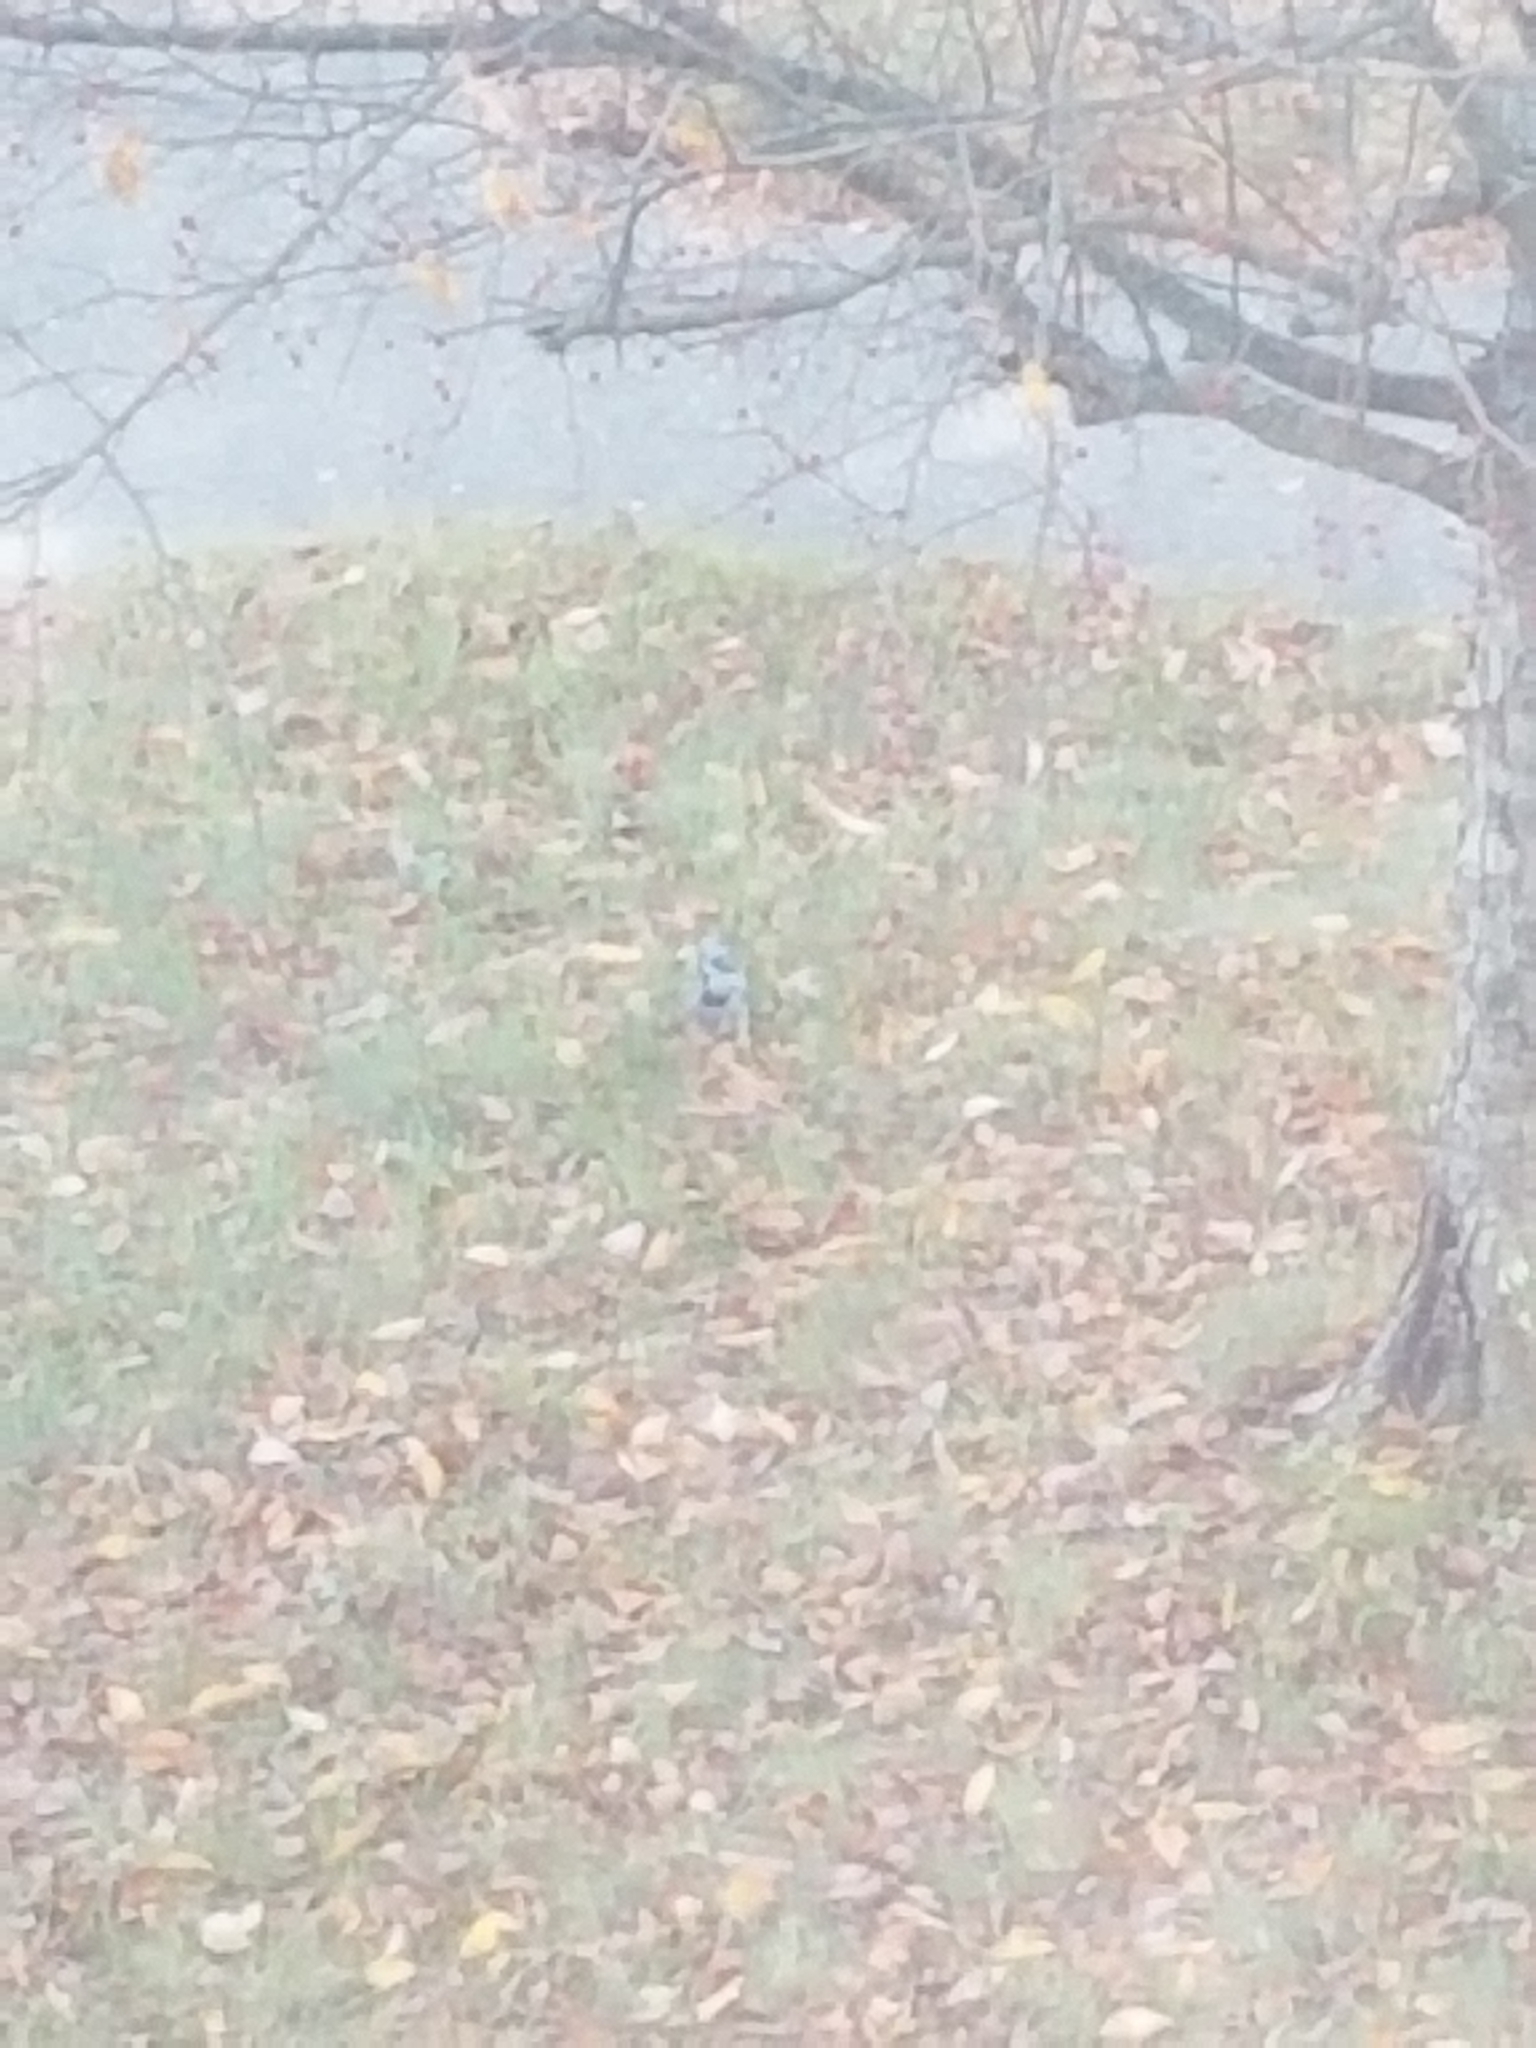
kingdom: Animalia
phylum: Chordata
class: Aves
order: Passeriformes
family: Corvidae
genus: Cyanocitta
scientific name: Cyanocitta cristata
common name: Blue jay
